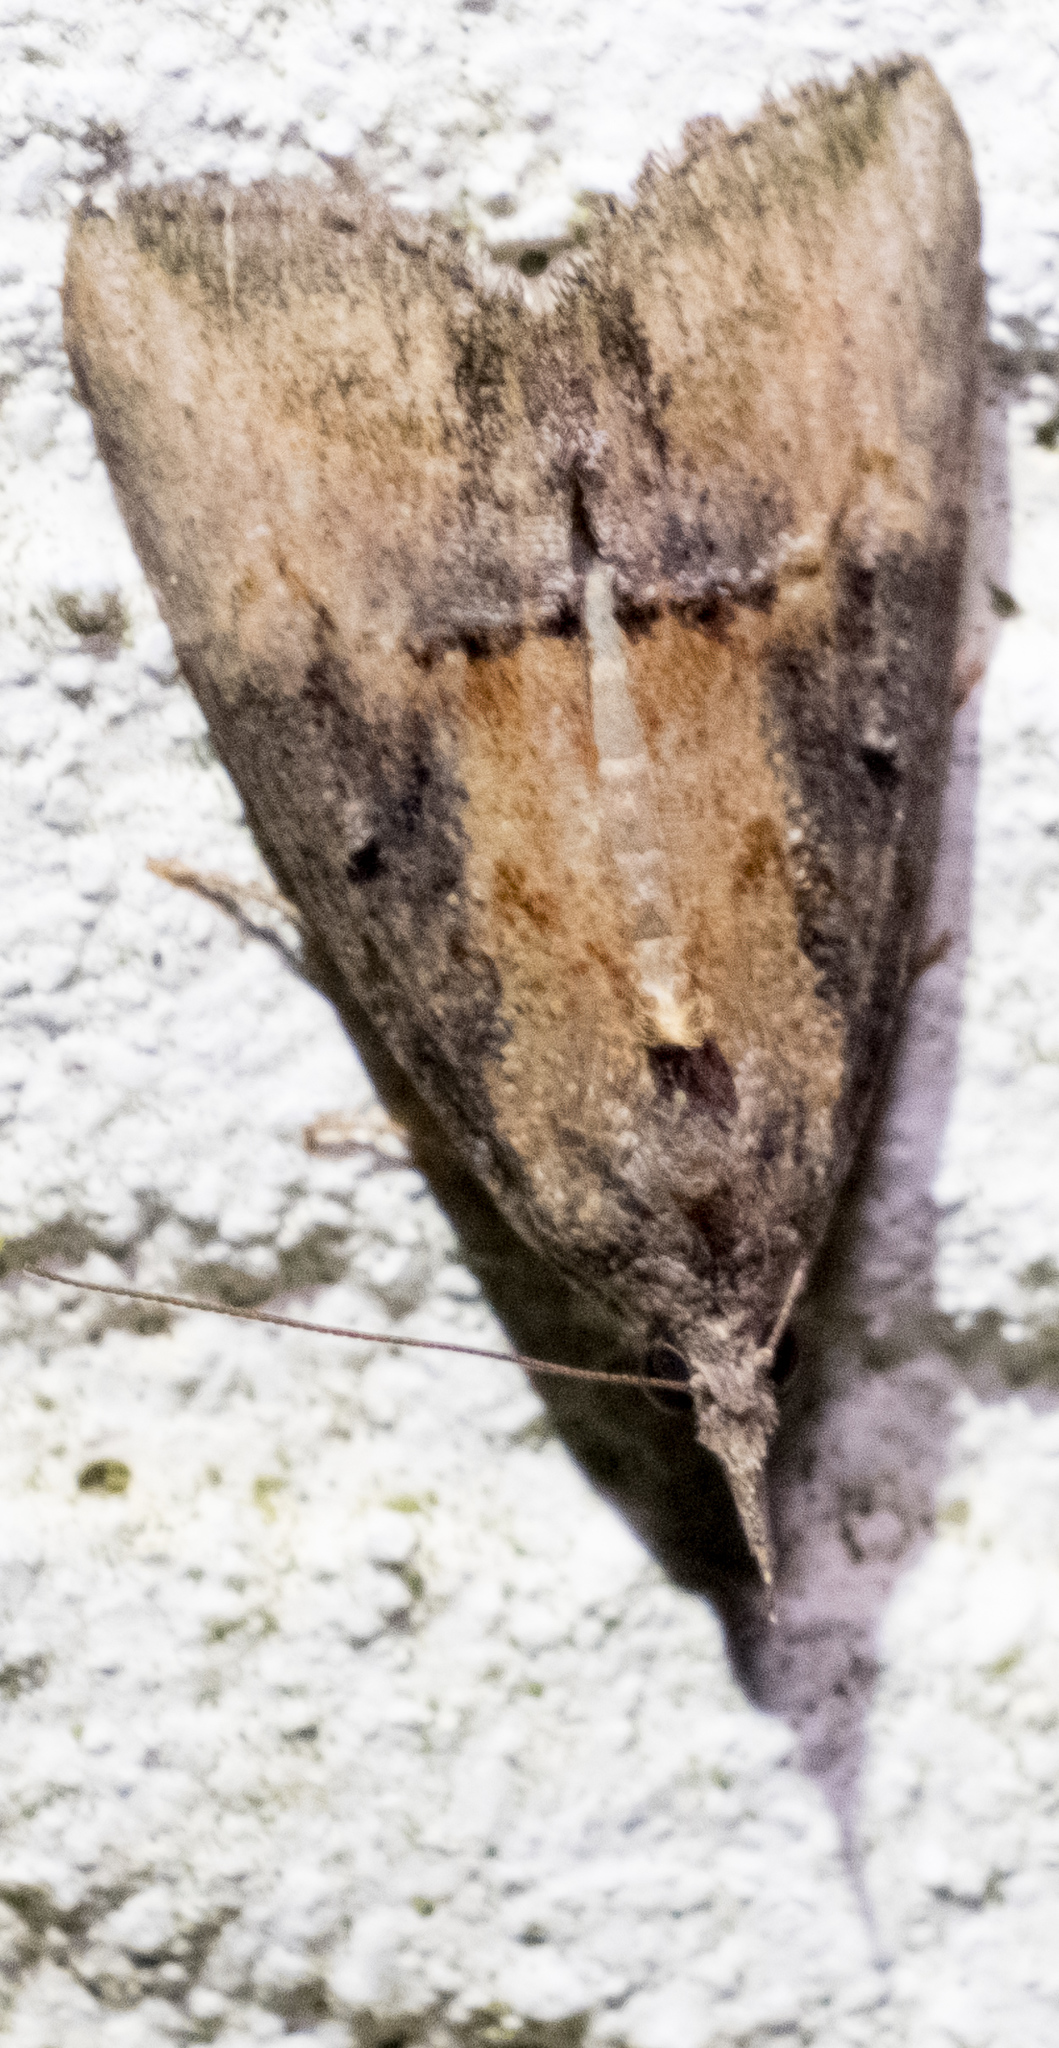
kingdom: Animalia
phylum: Arthropoda
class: Insecta
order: Lepidoptera
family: Erebidae
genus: Hypena
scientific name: Hypena scabra
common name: Green cloverworm
